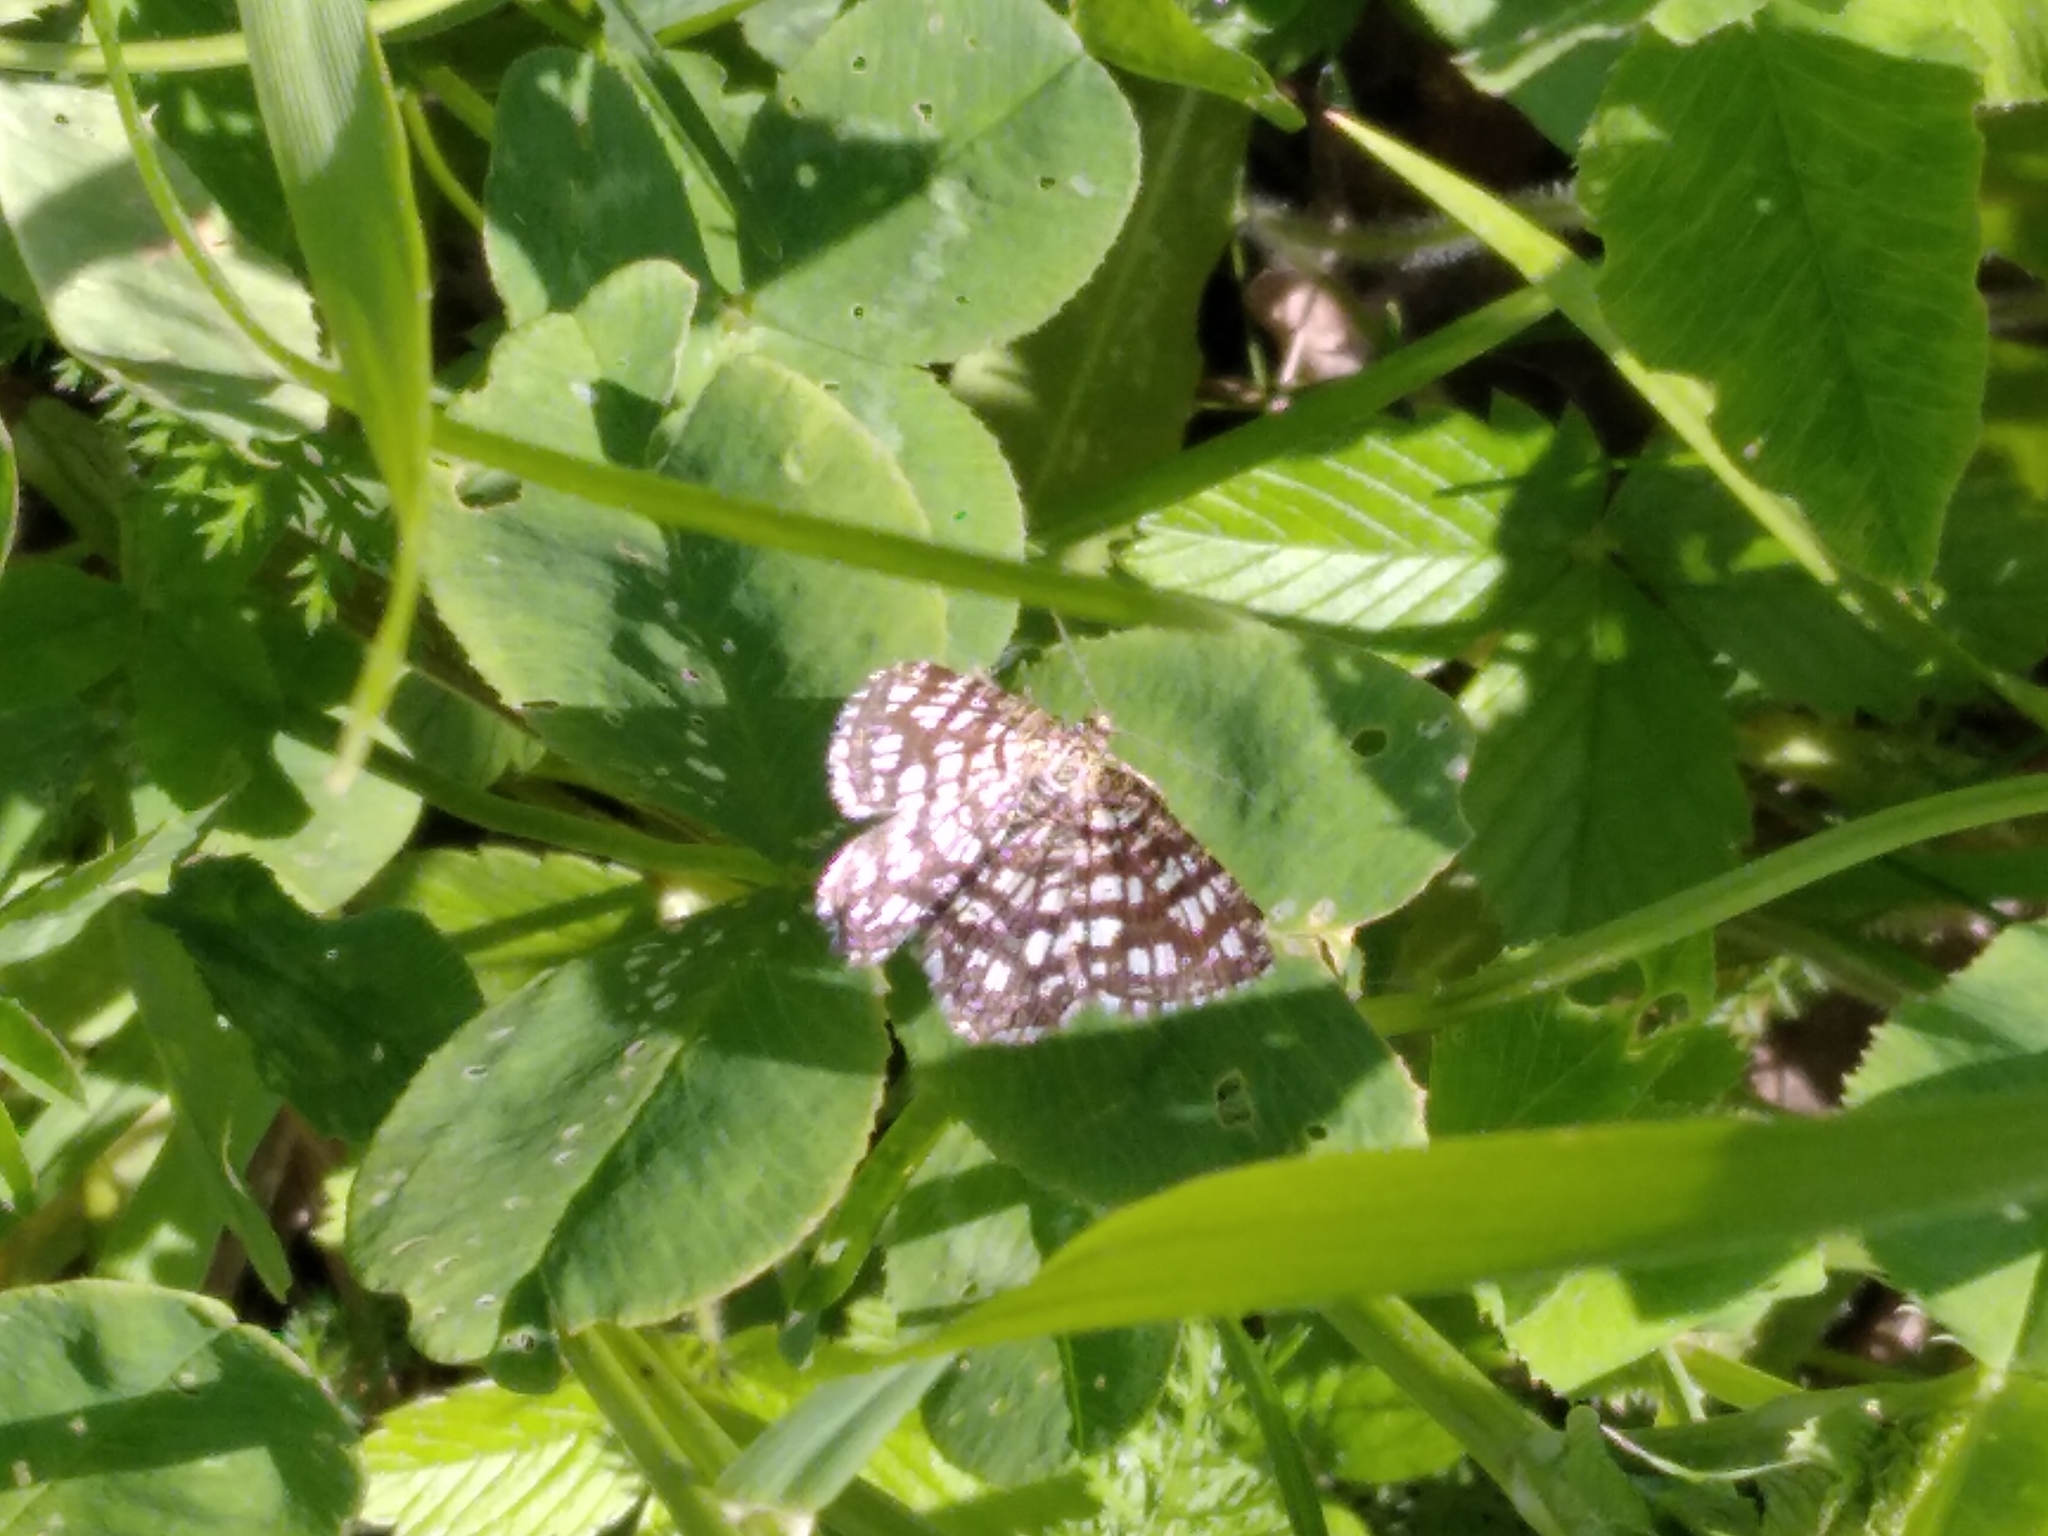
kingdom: Animalia
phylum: Arthropoda
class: Insecta
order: Lepidoptera
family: Geometridae
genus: Chiasmia
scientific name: Chiasmia clathrata
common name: Latticed heath
